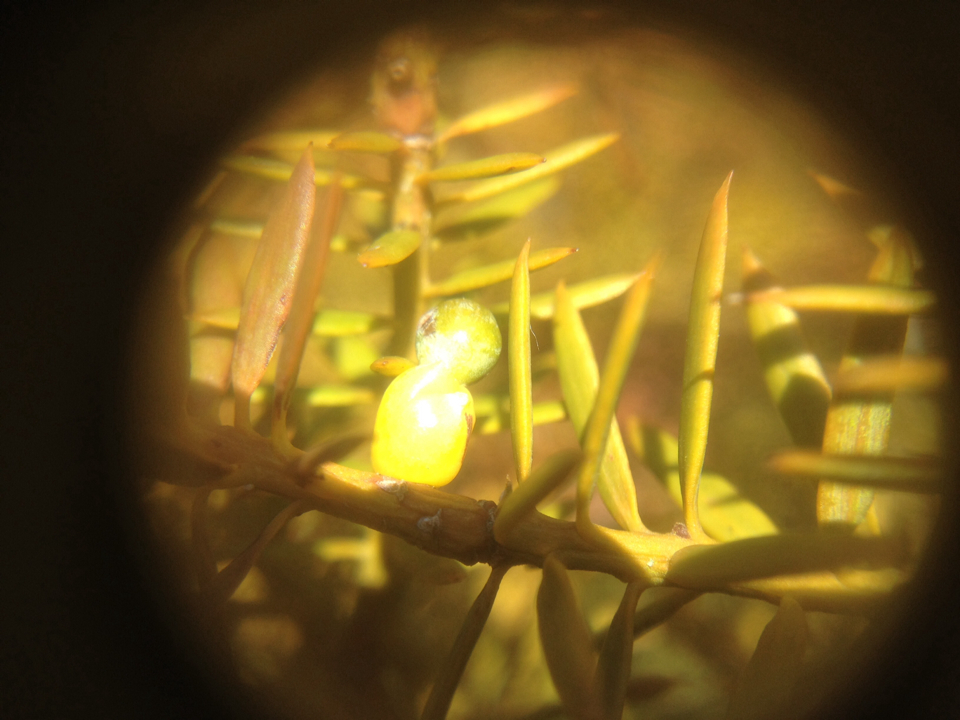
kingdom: Plantae
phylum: Tracheophyta
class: Pinopsida
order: Pinales
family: Podocarpaceae
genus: Podocarpus
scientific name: Podocarpus totara
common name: Totara
